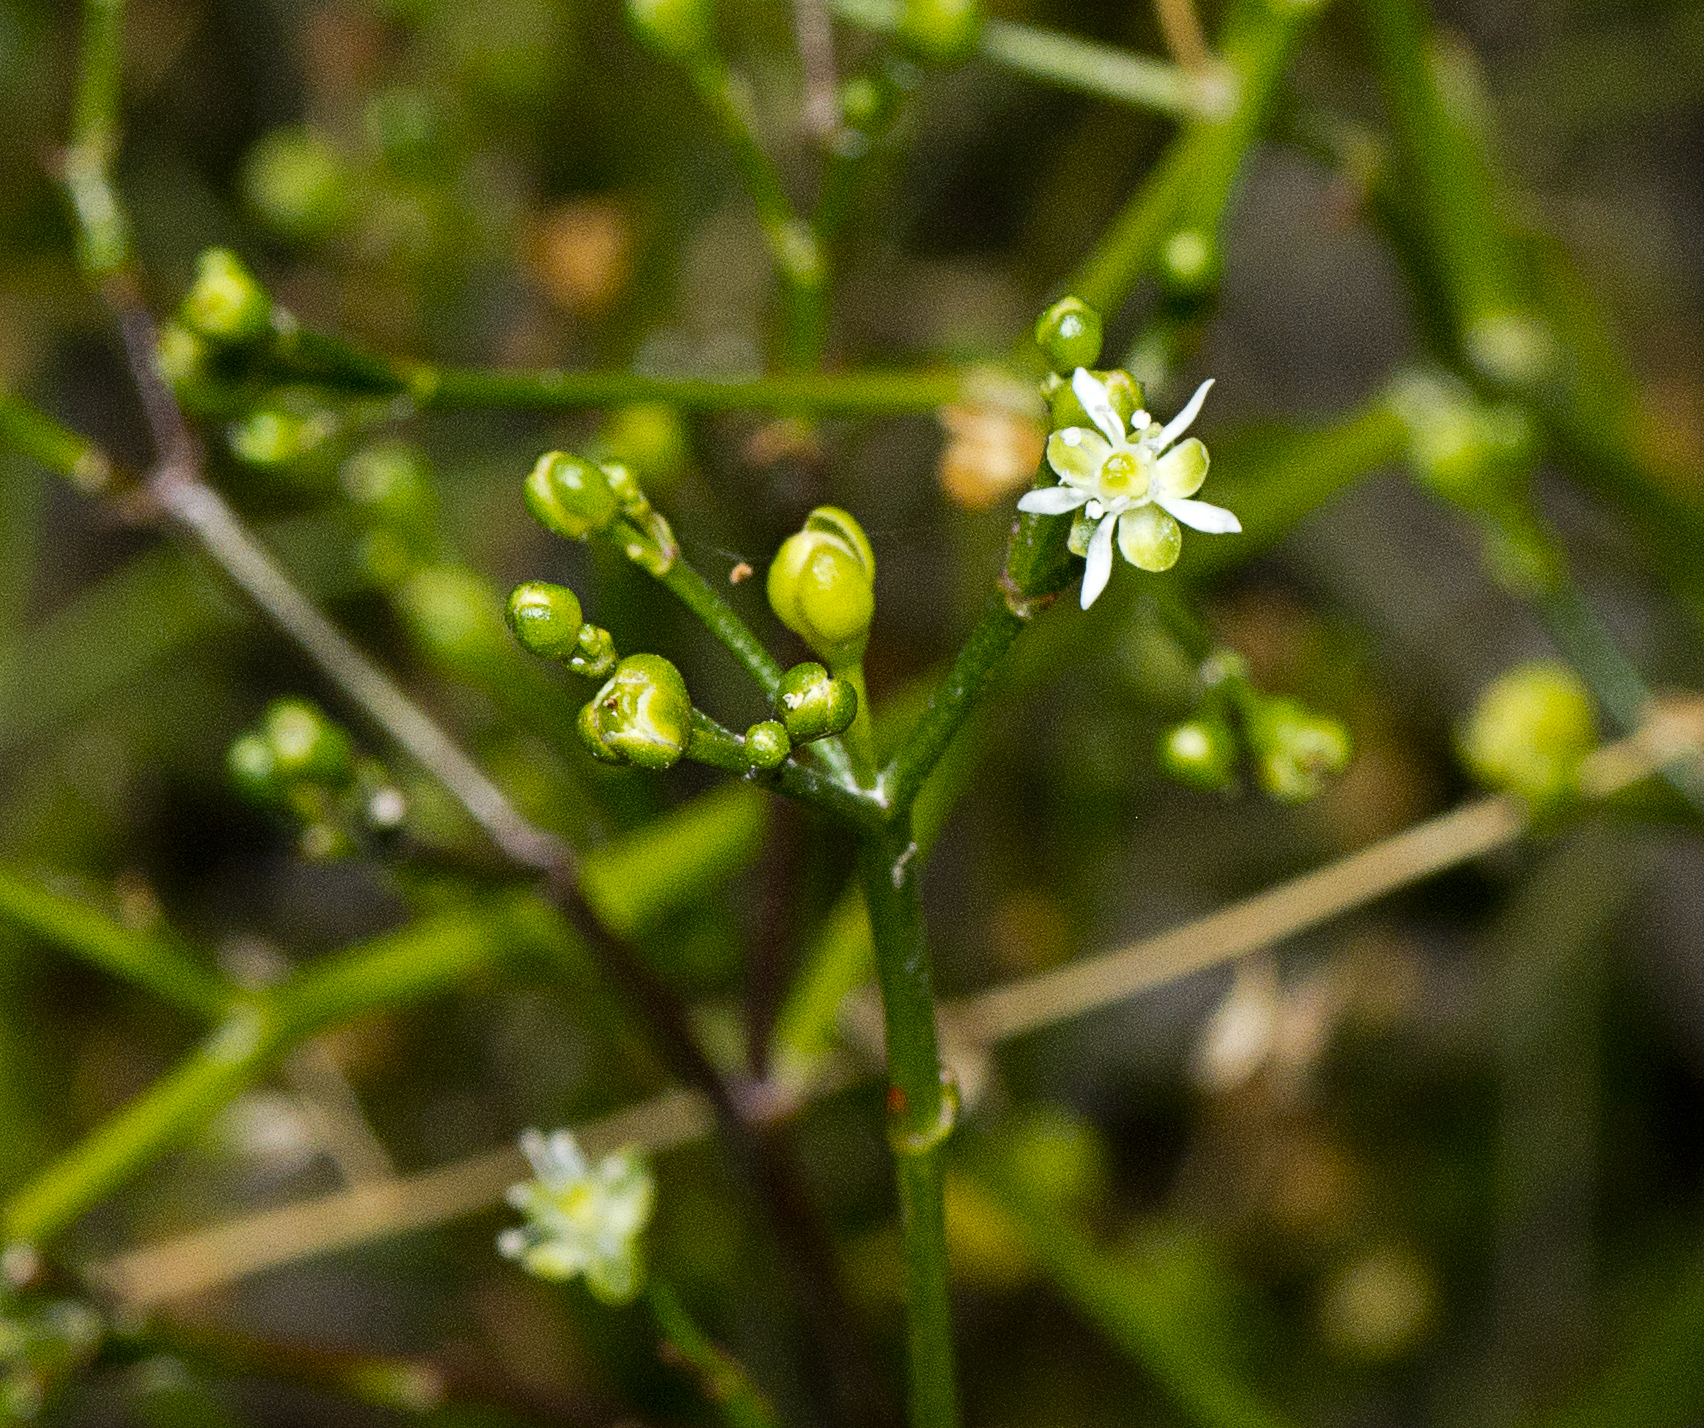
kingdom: Plantae
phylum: Tracheophyta
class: Magnoliopsida
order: Caryophyllales
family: Macarthuriaceae
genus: Macarthuria
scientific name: Macarthuria neocambrica
